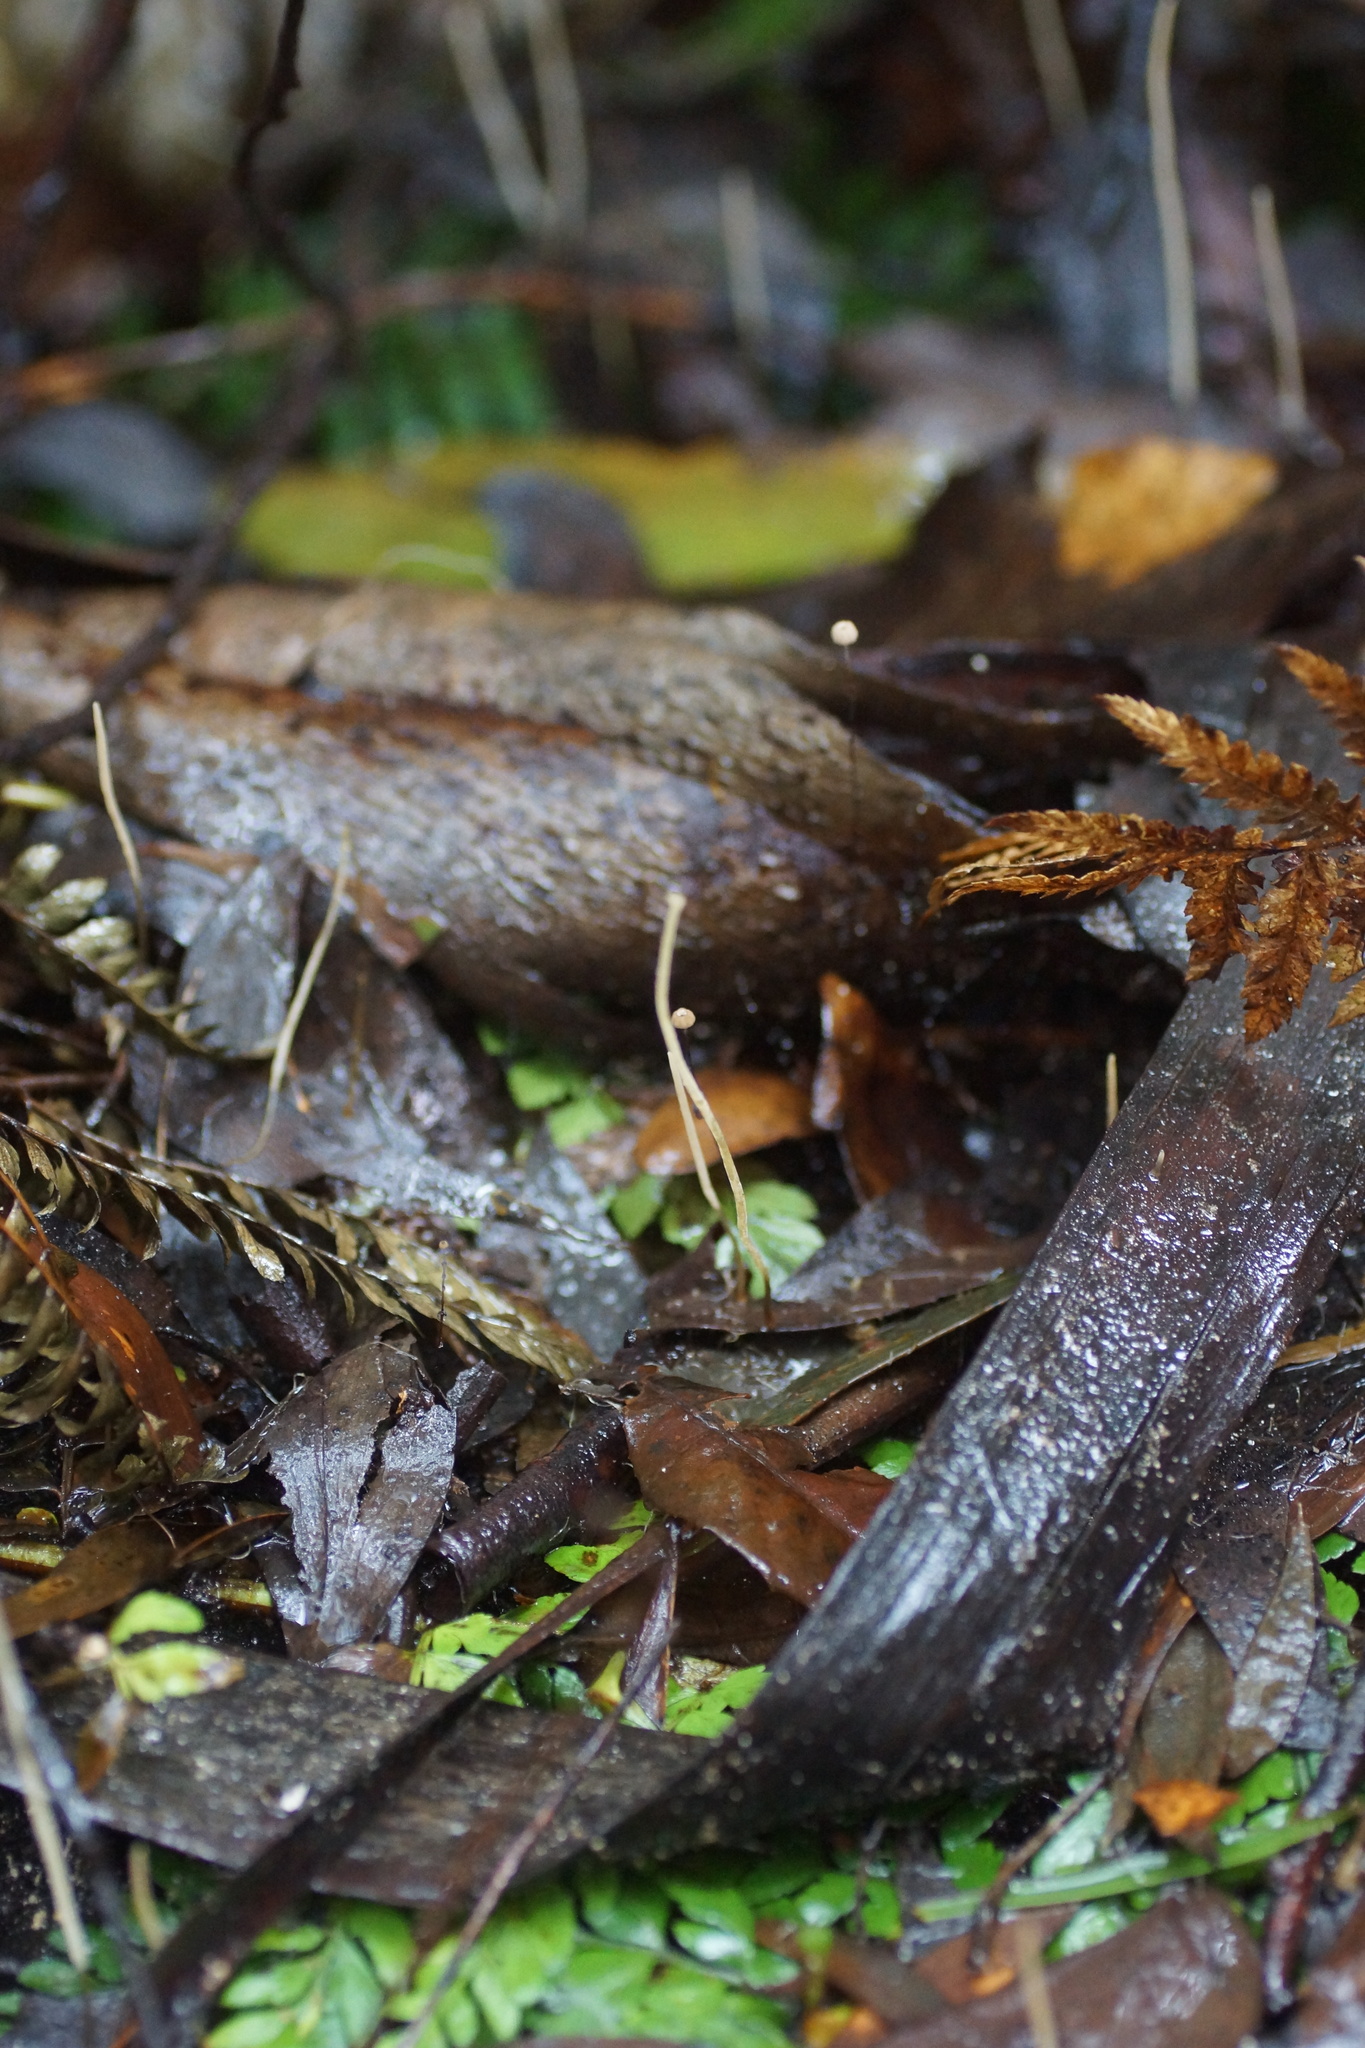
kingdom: Fungi
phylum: Basidiomycota
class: Agaricomycetes
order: Agaricales
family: Typhulaceae
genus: Typhula
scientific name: Typhula juncea
